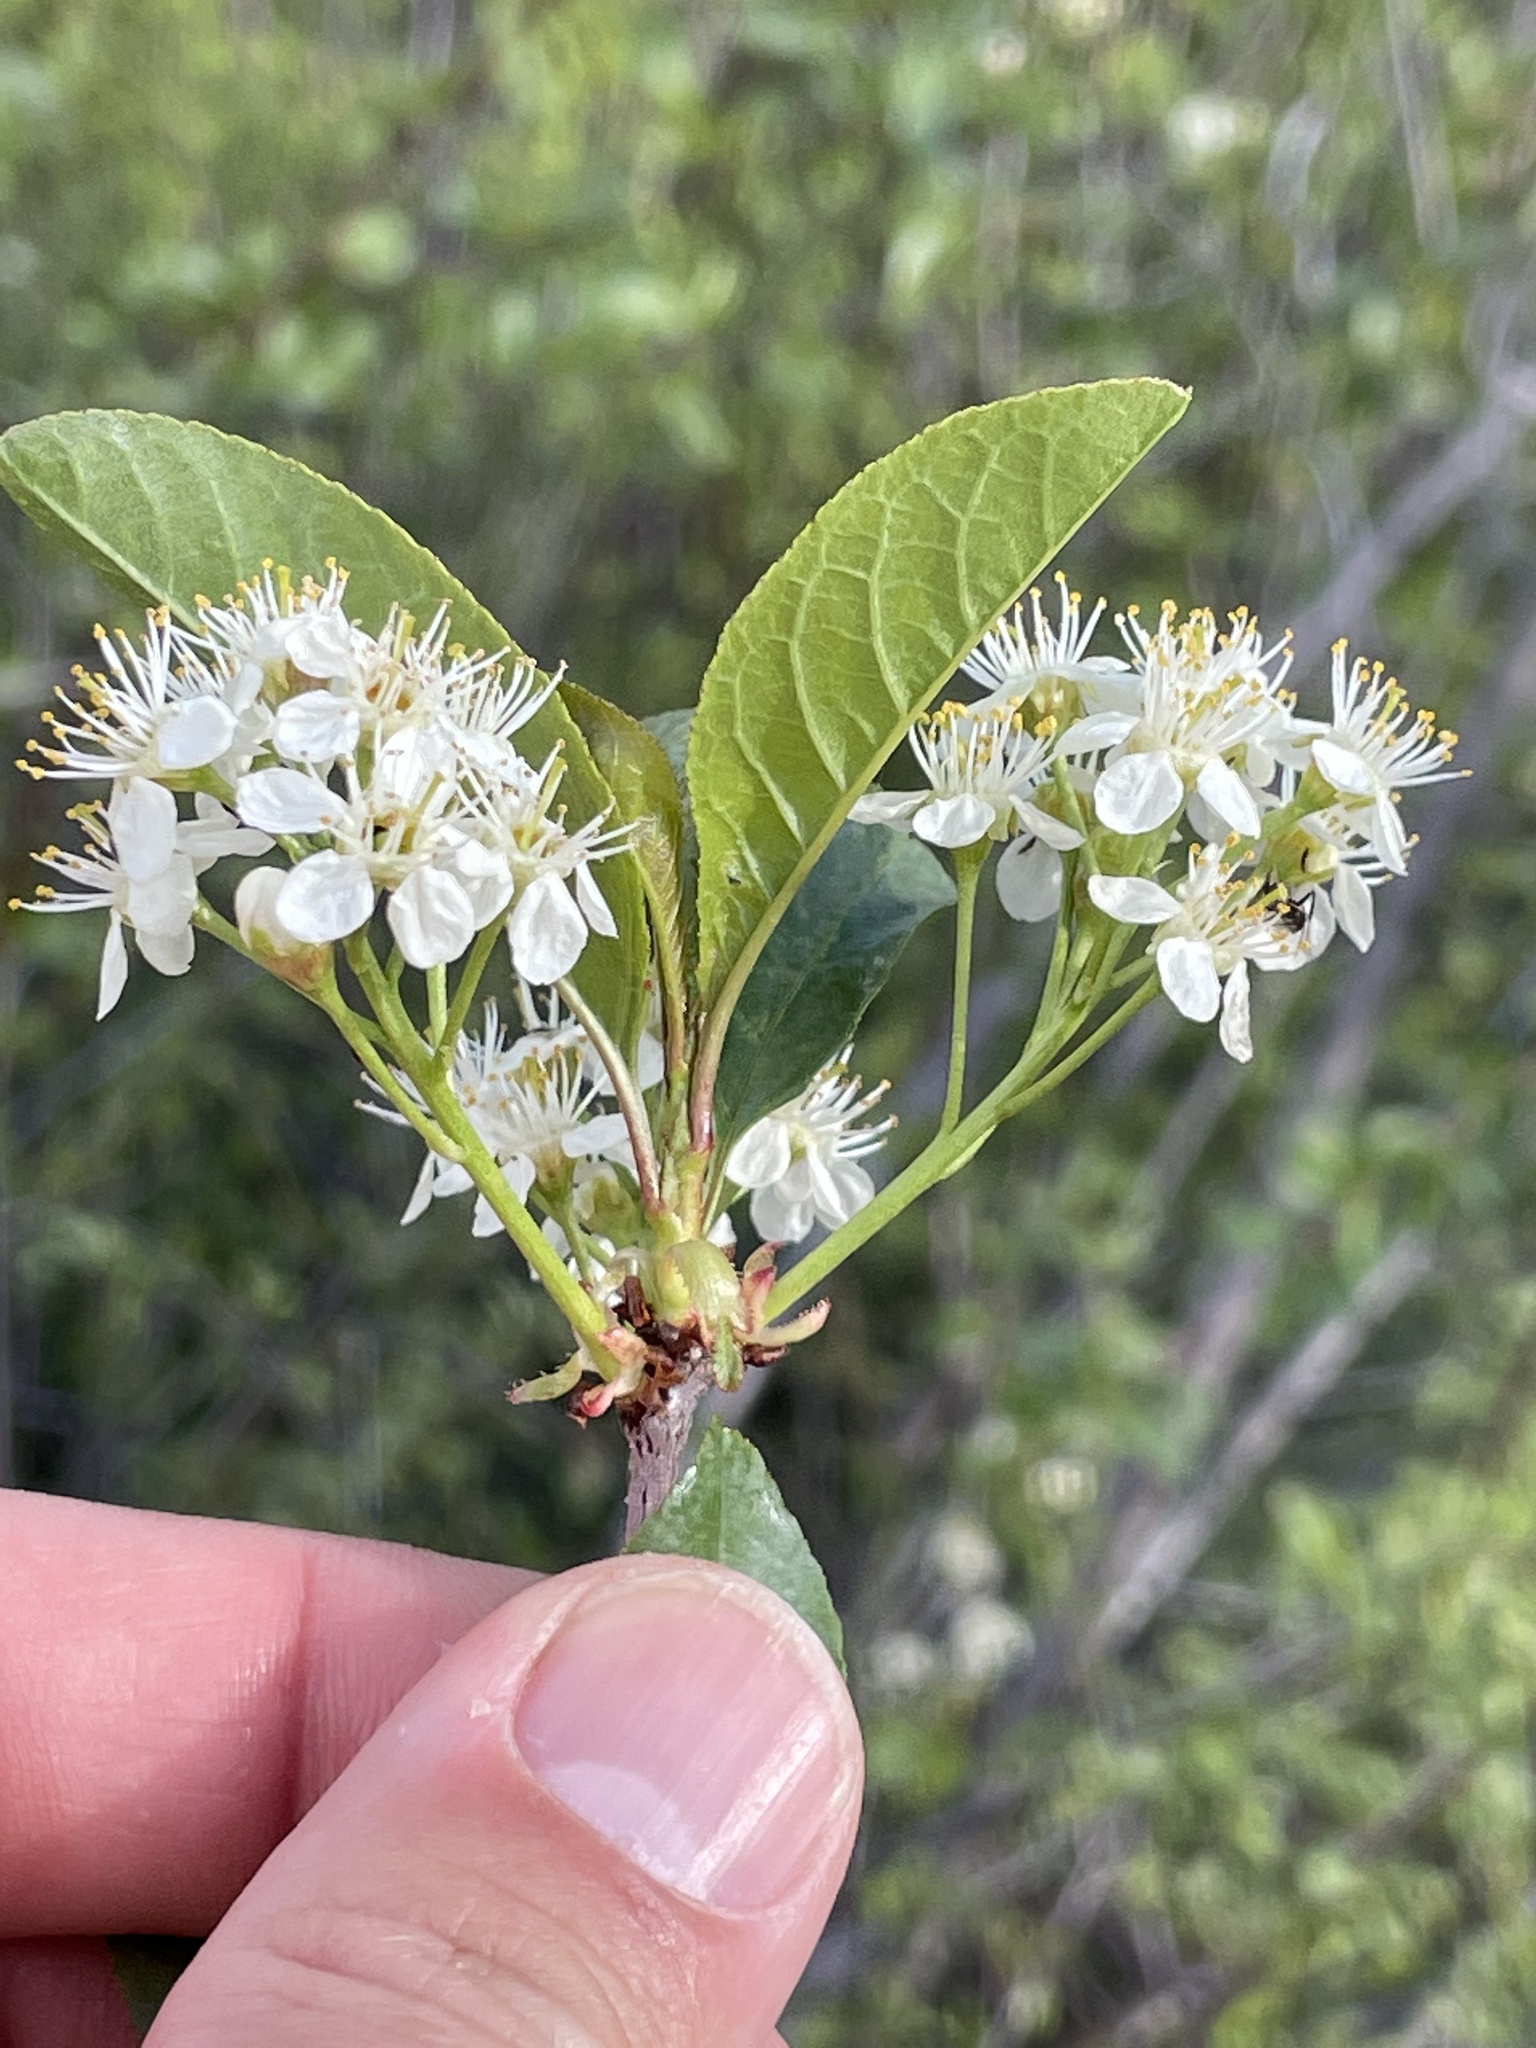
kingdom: Plantae
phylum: Tracheophyta
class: Magnoliopsida
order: Rosales
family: Rosaceae
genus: Prunus
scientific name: Prunus emarginata
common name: Bitter cherry
